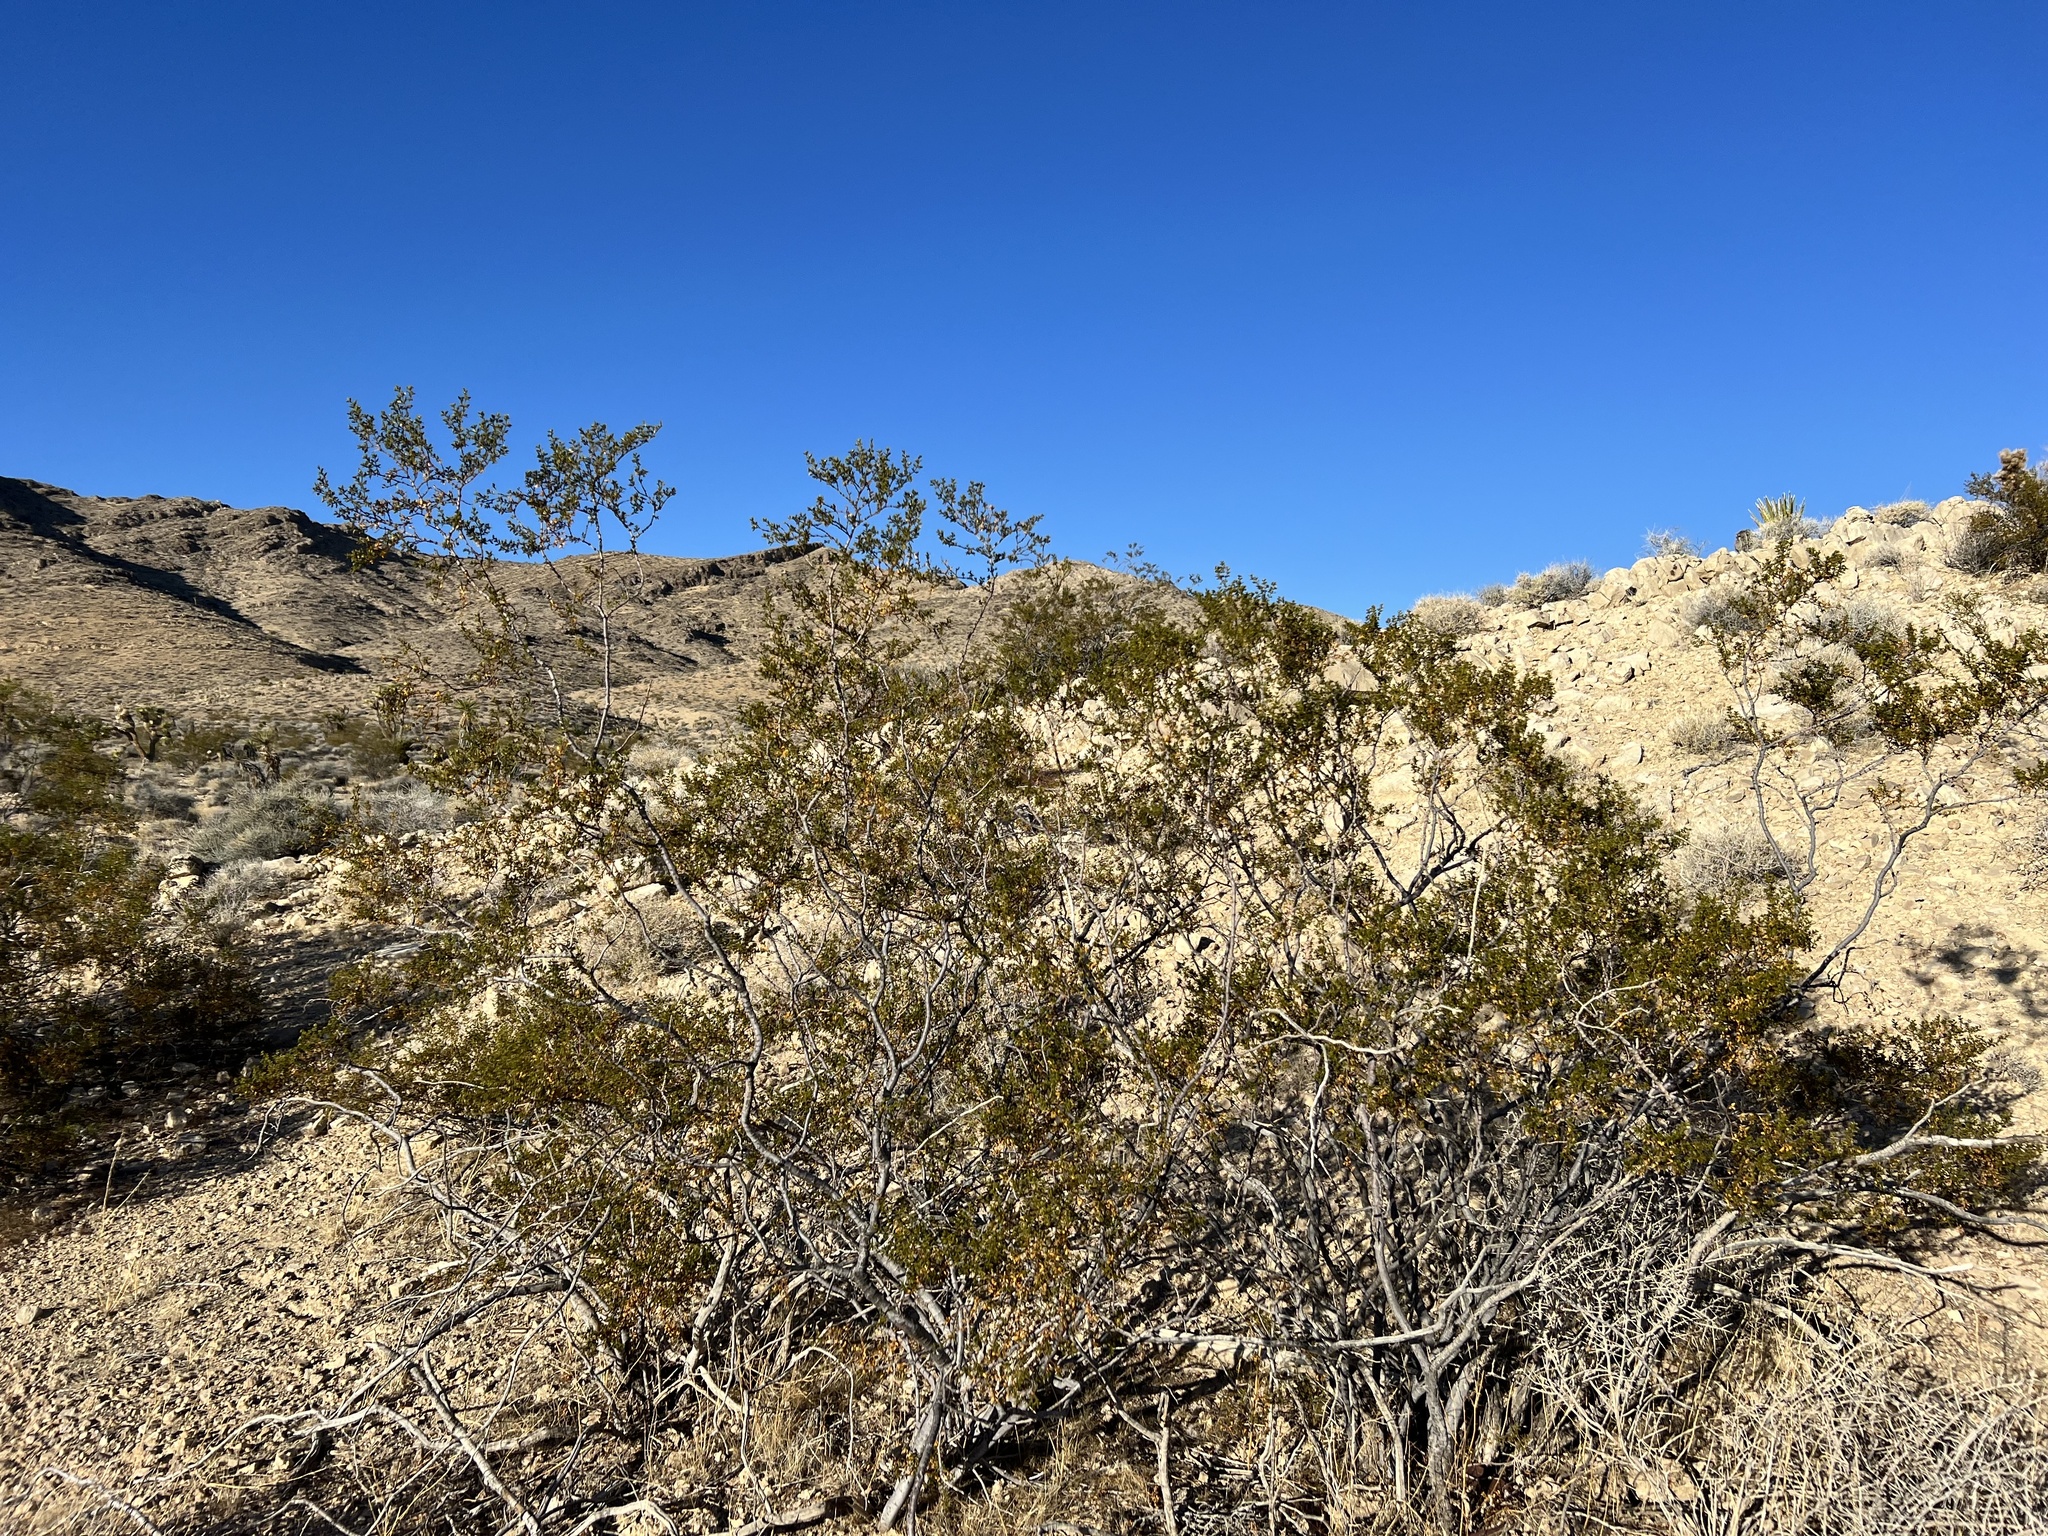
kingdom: Plantae
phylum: Tracheophyta
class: Magnoliopsida
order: Zygophyllales
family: Zygophyllaceae
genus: Larrea
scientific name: Larrea tridentata
